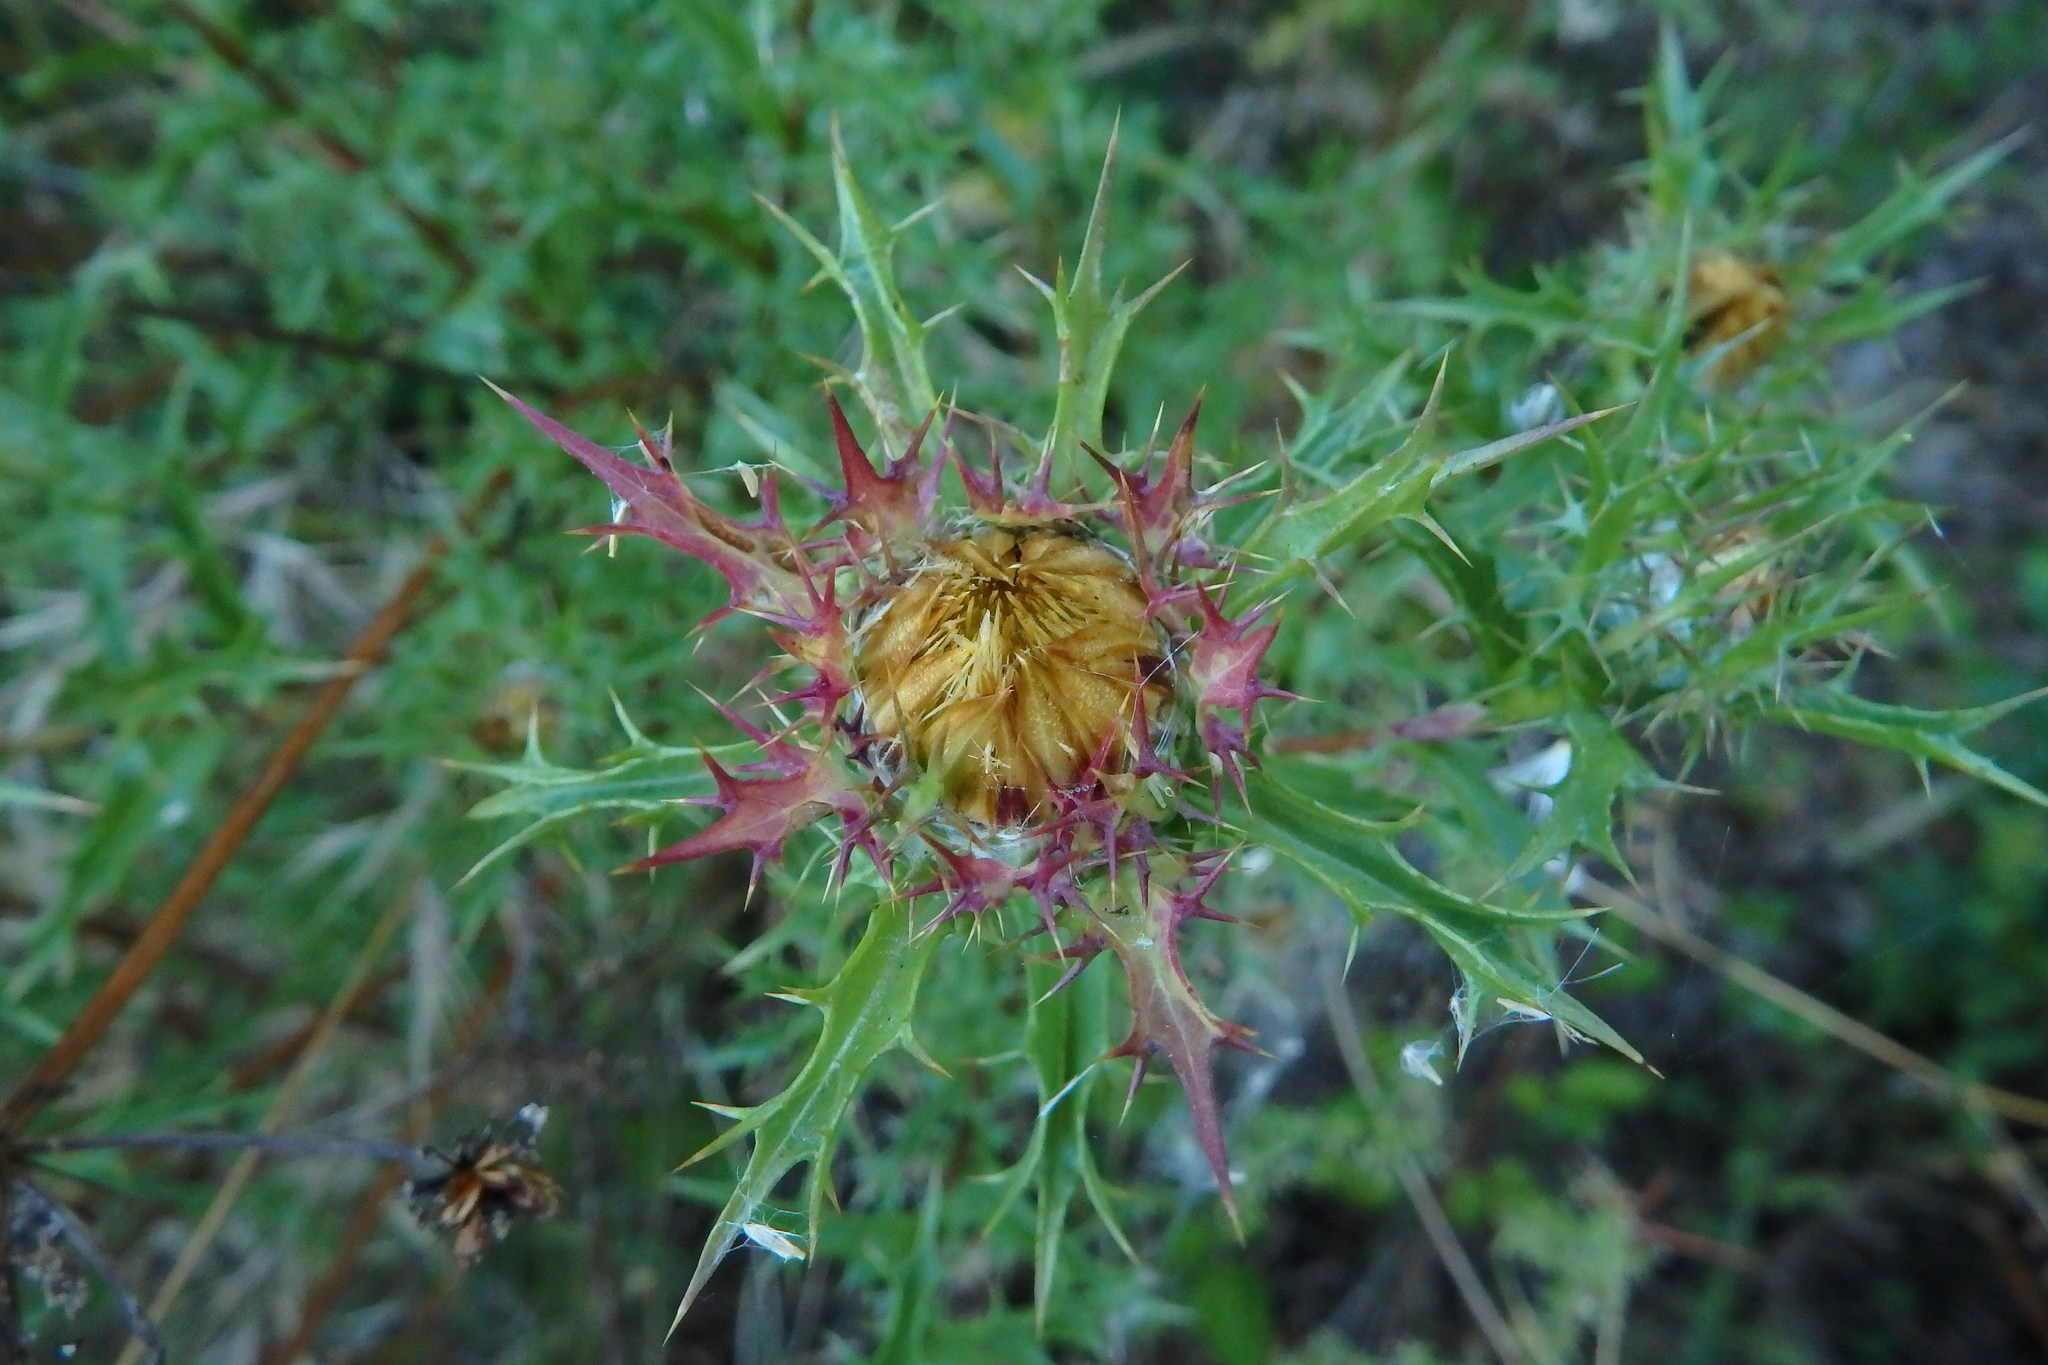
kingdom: Plantae
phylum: Tracheophyta
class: Magnoliopsida
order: Asterales
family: Asteraceae
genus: Carlina
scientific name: Carlina hispanica
